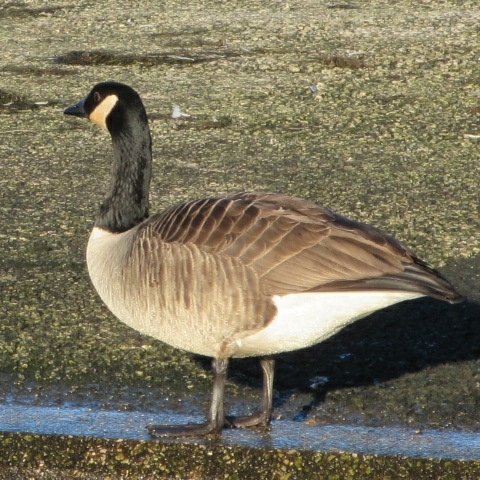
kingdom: Animalia
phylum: Chordata
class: Aves
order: Anseriformes
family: Anatidae
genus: Branta
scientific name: Branta canadensis
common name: Canada goose
